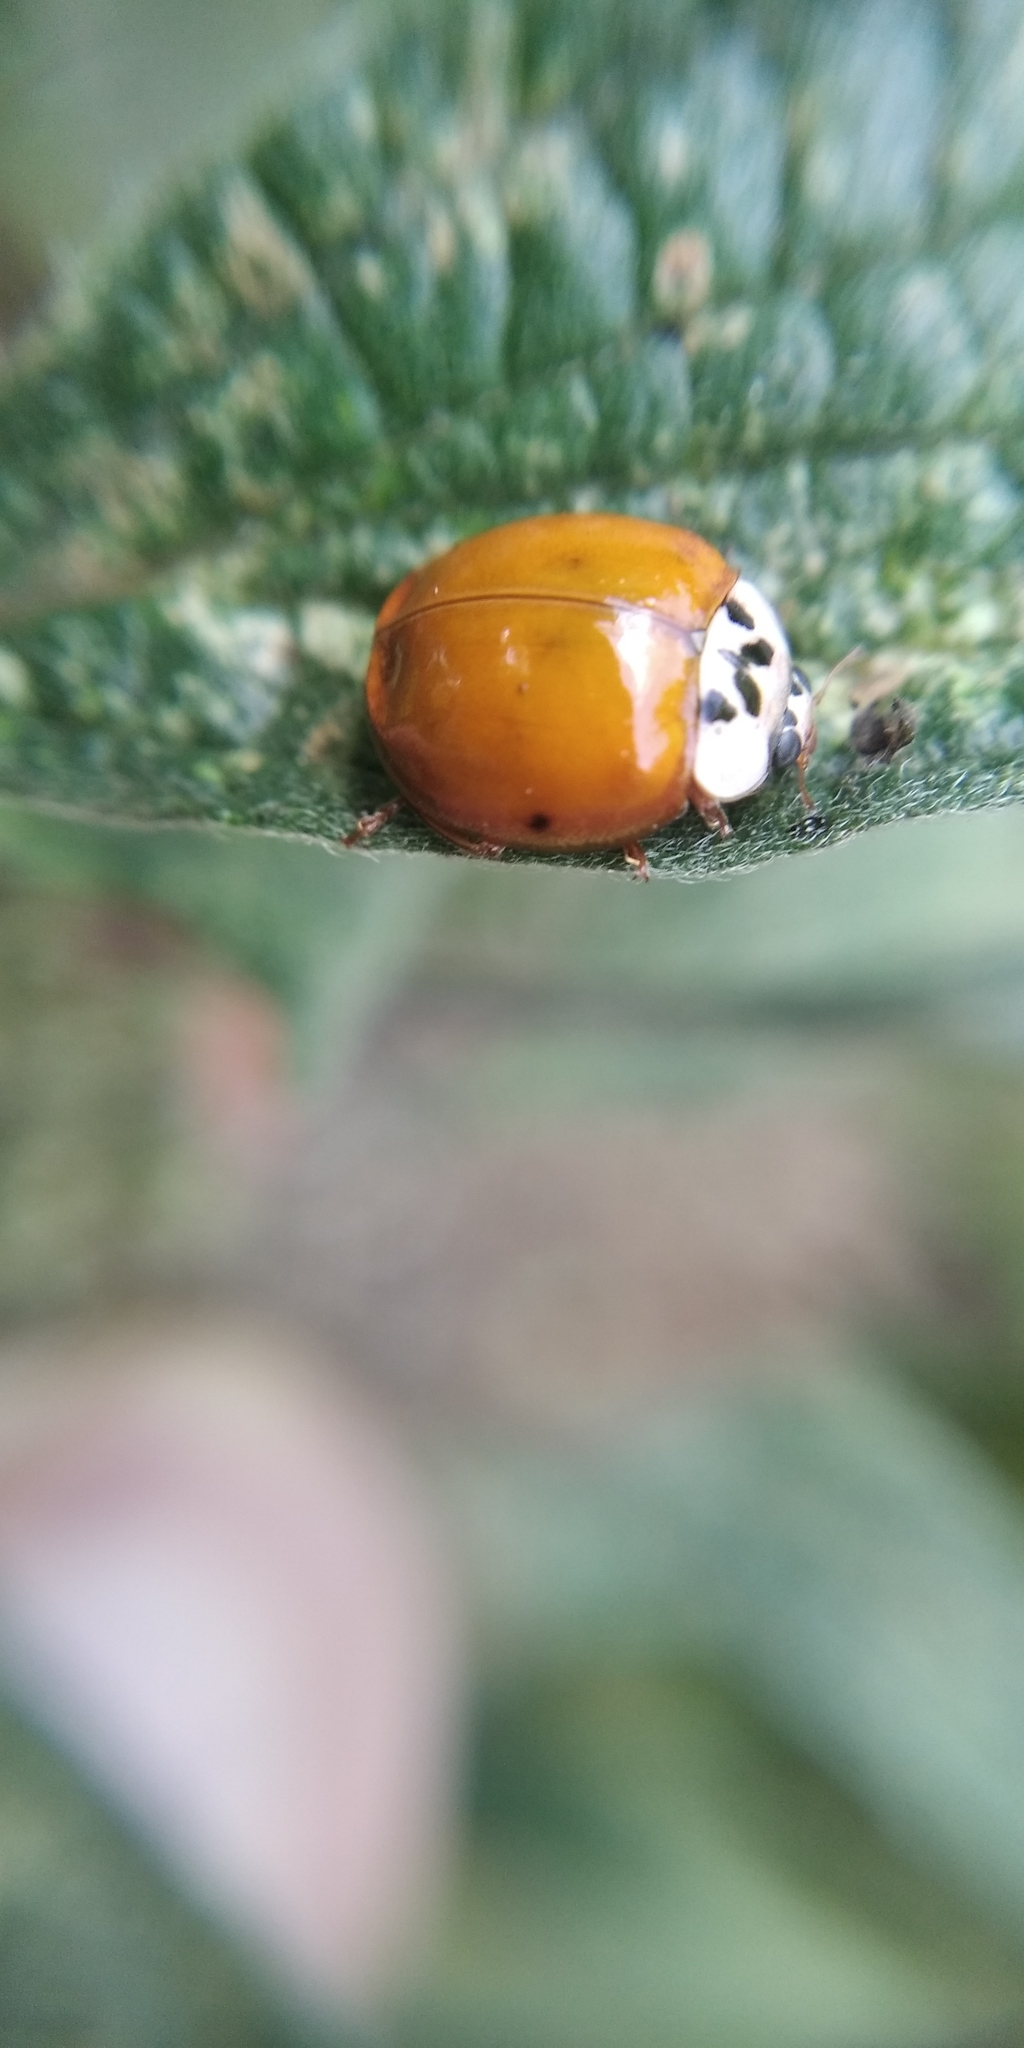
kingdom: Animalia
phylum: Arthropoda
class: Insecta
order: Coleoptera
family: Coccinellidae
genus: Harmonia
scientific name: Harmonia axyridis
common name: Harlequin ladybird
